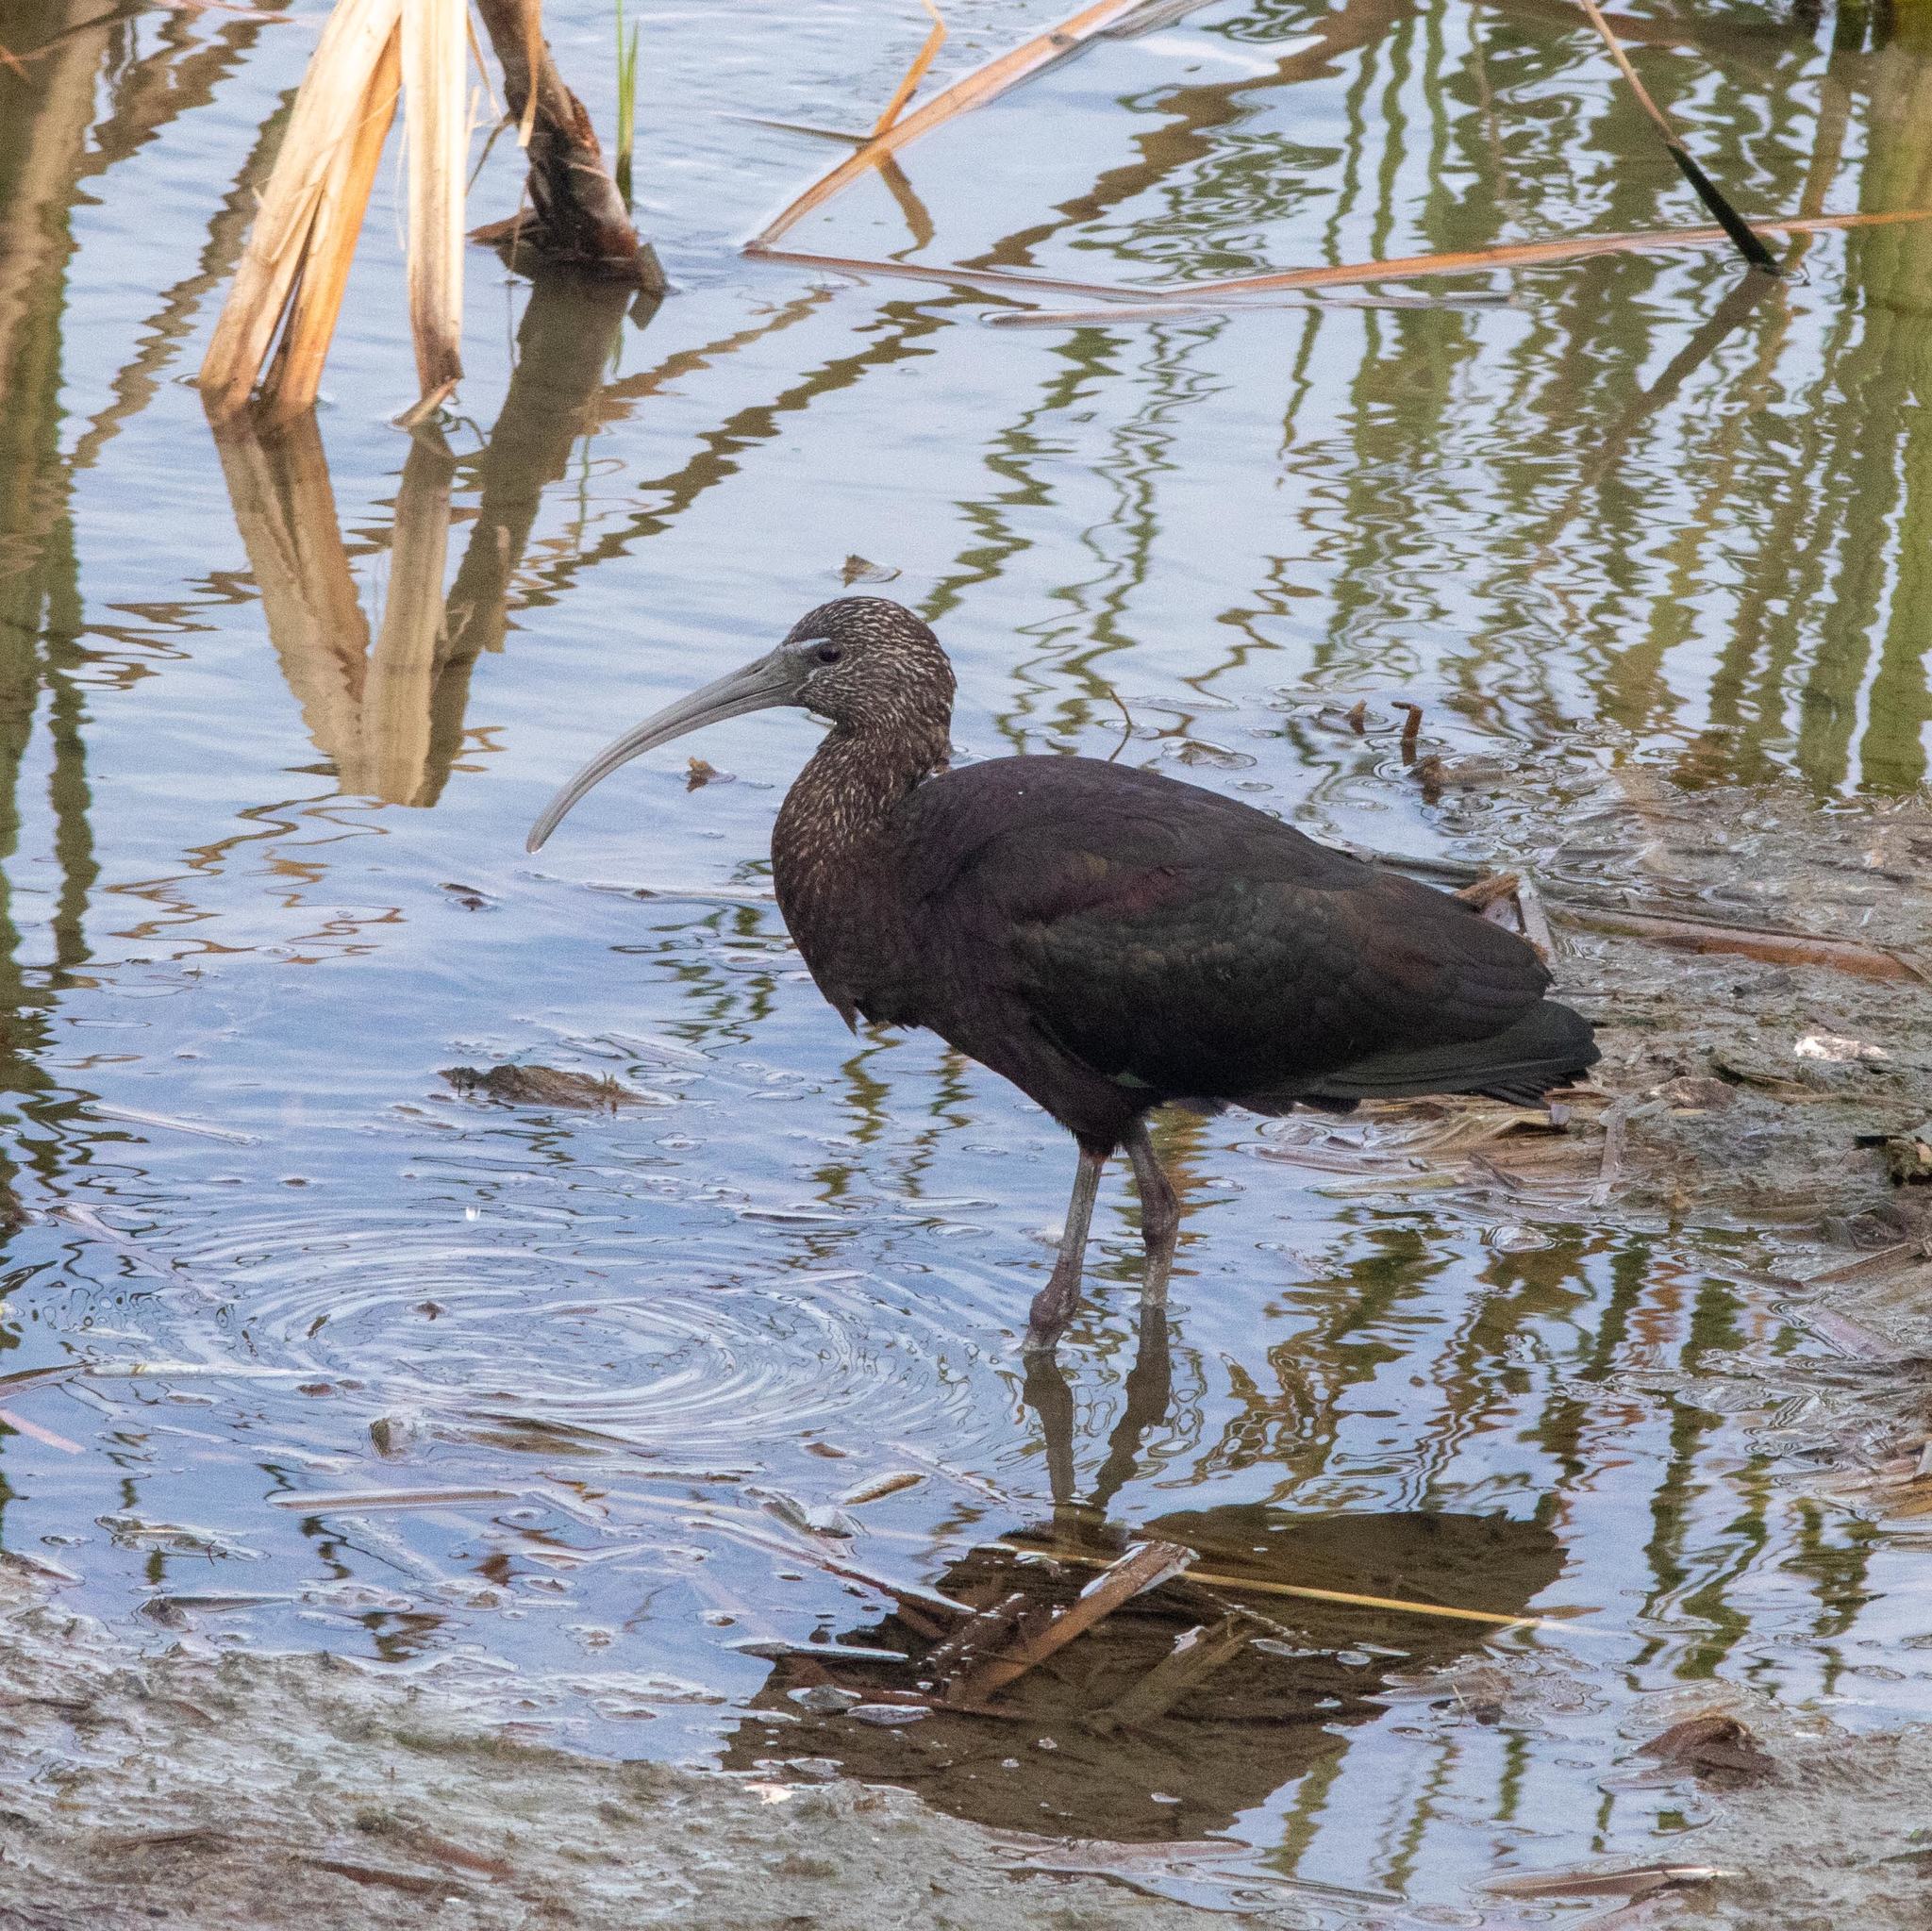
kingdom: Animalia
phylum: Chordata
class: Aves
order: Pelecaniformes
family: Threskiornithidae
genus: Plegadis
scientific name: Plegadis falcinellus
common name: Glossy ibis
